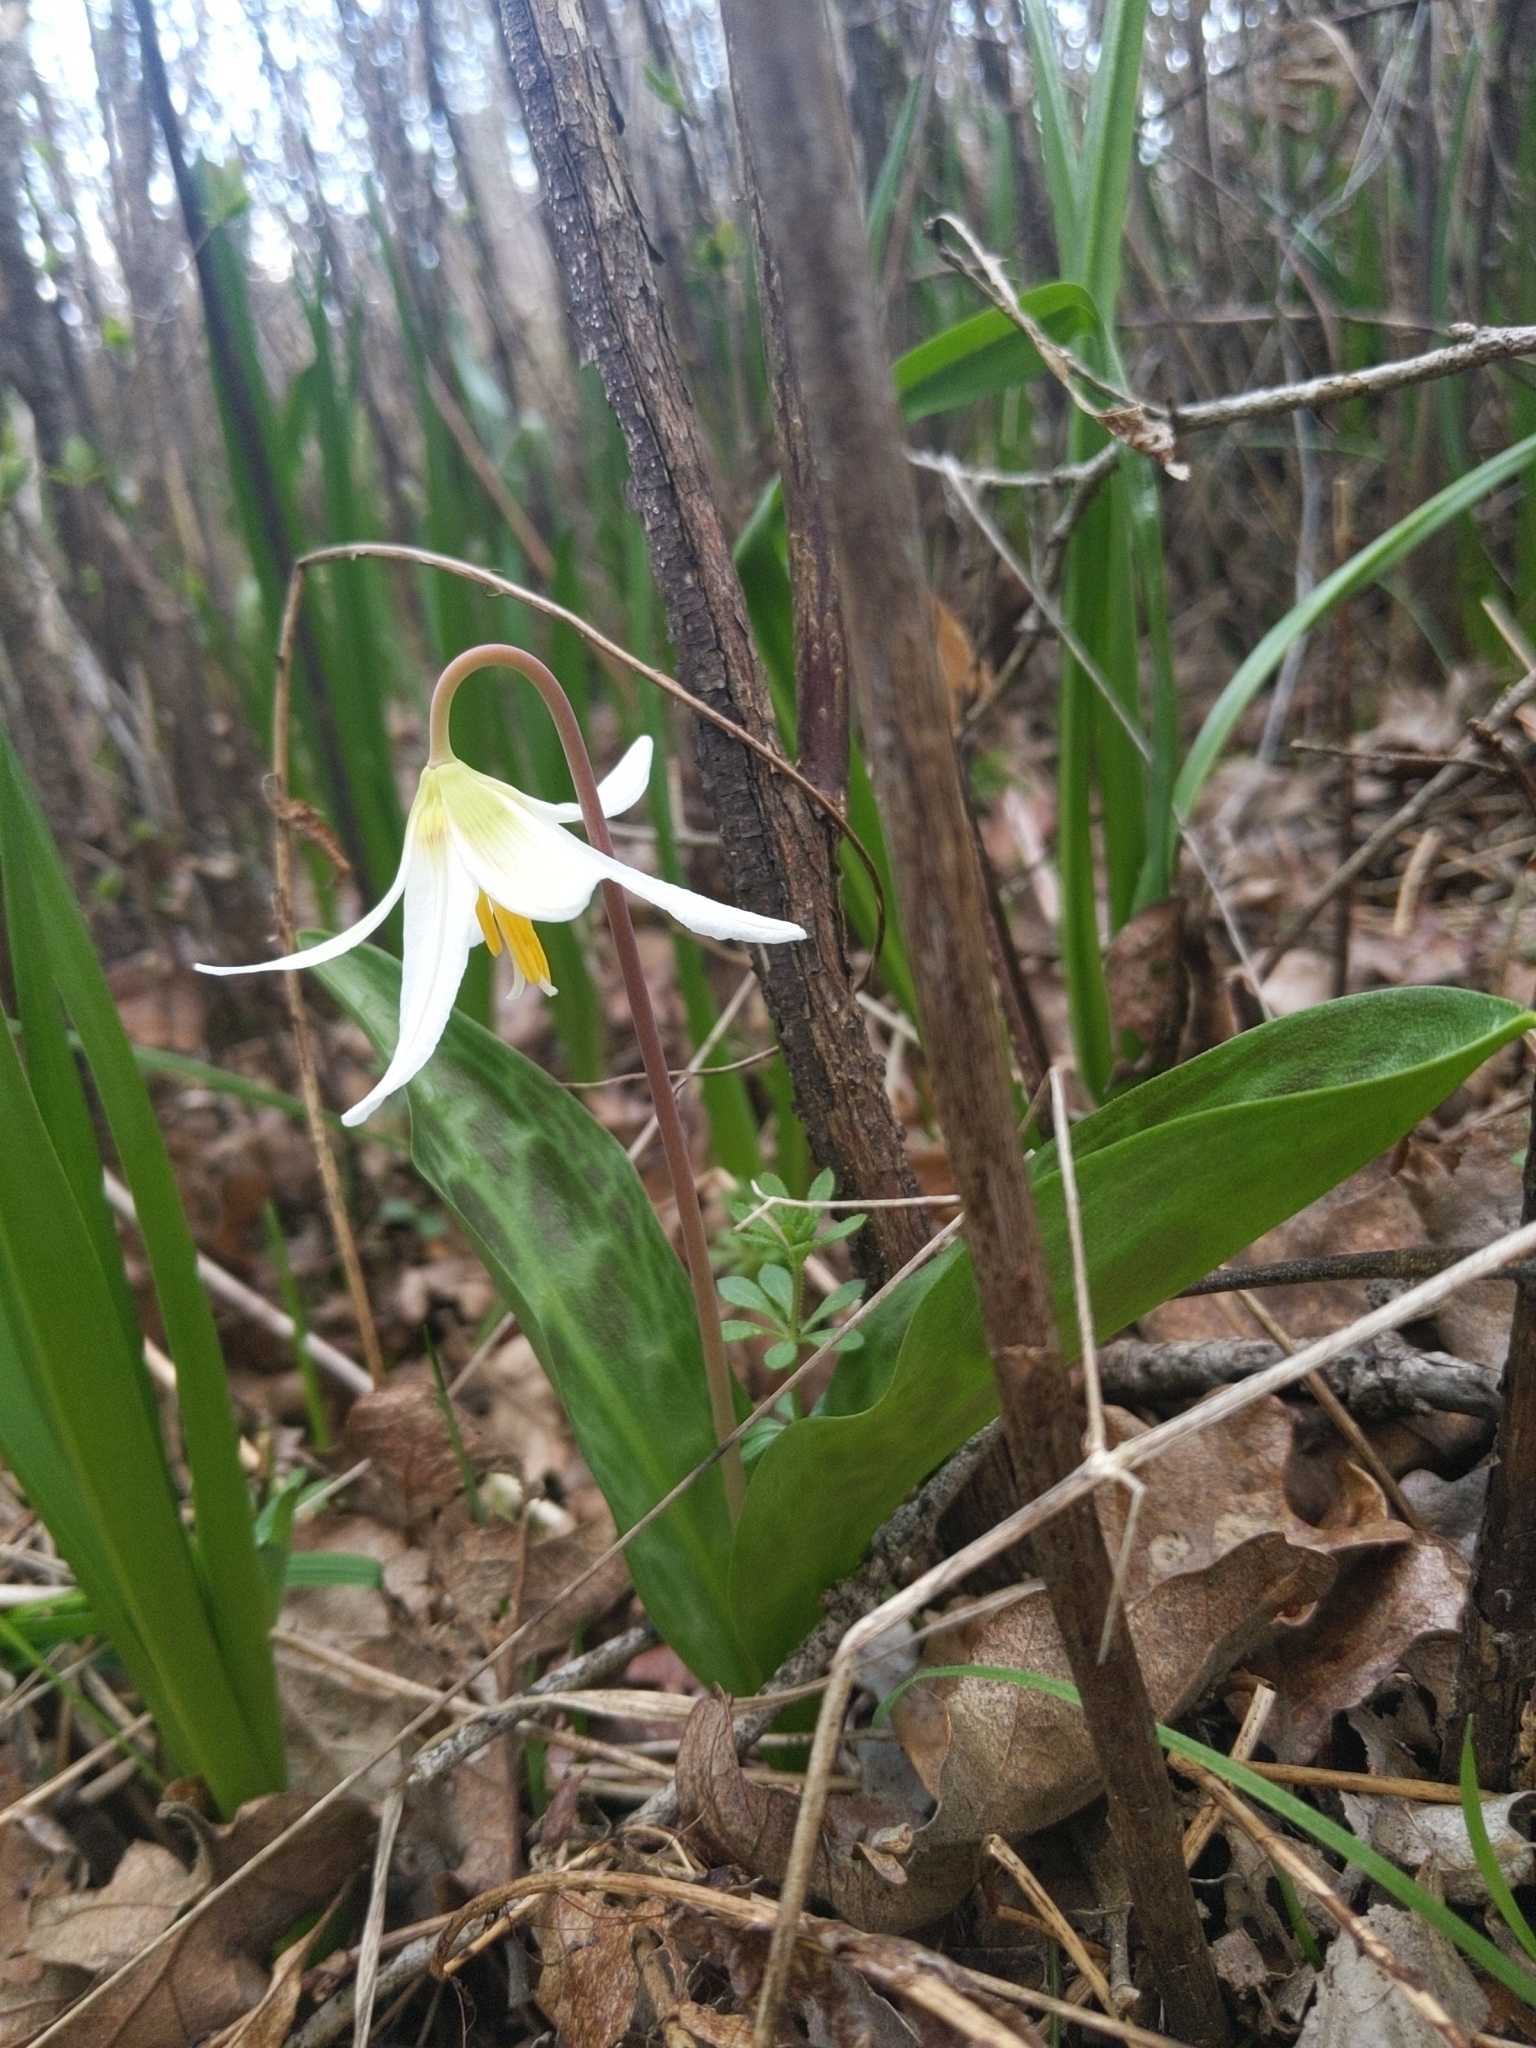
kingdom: Plantae
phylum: Tracheophyta
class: Liliopsida
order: Liliales
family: Liliaceae
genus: Erythronium
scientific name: Erythronium oregonum
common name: Giant adder's-tongue
